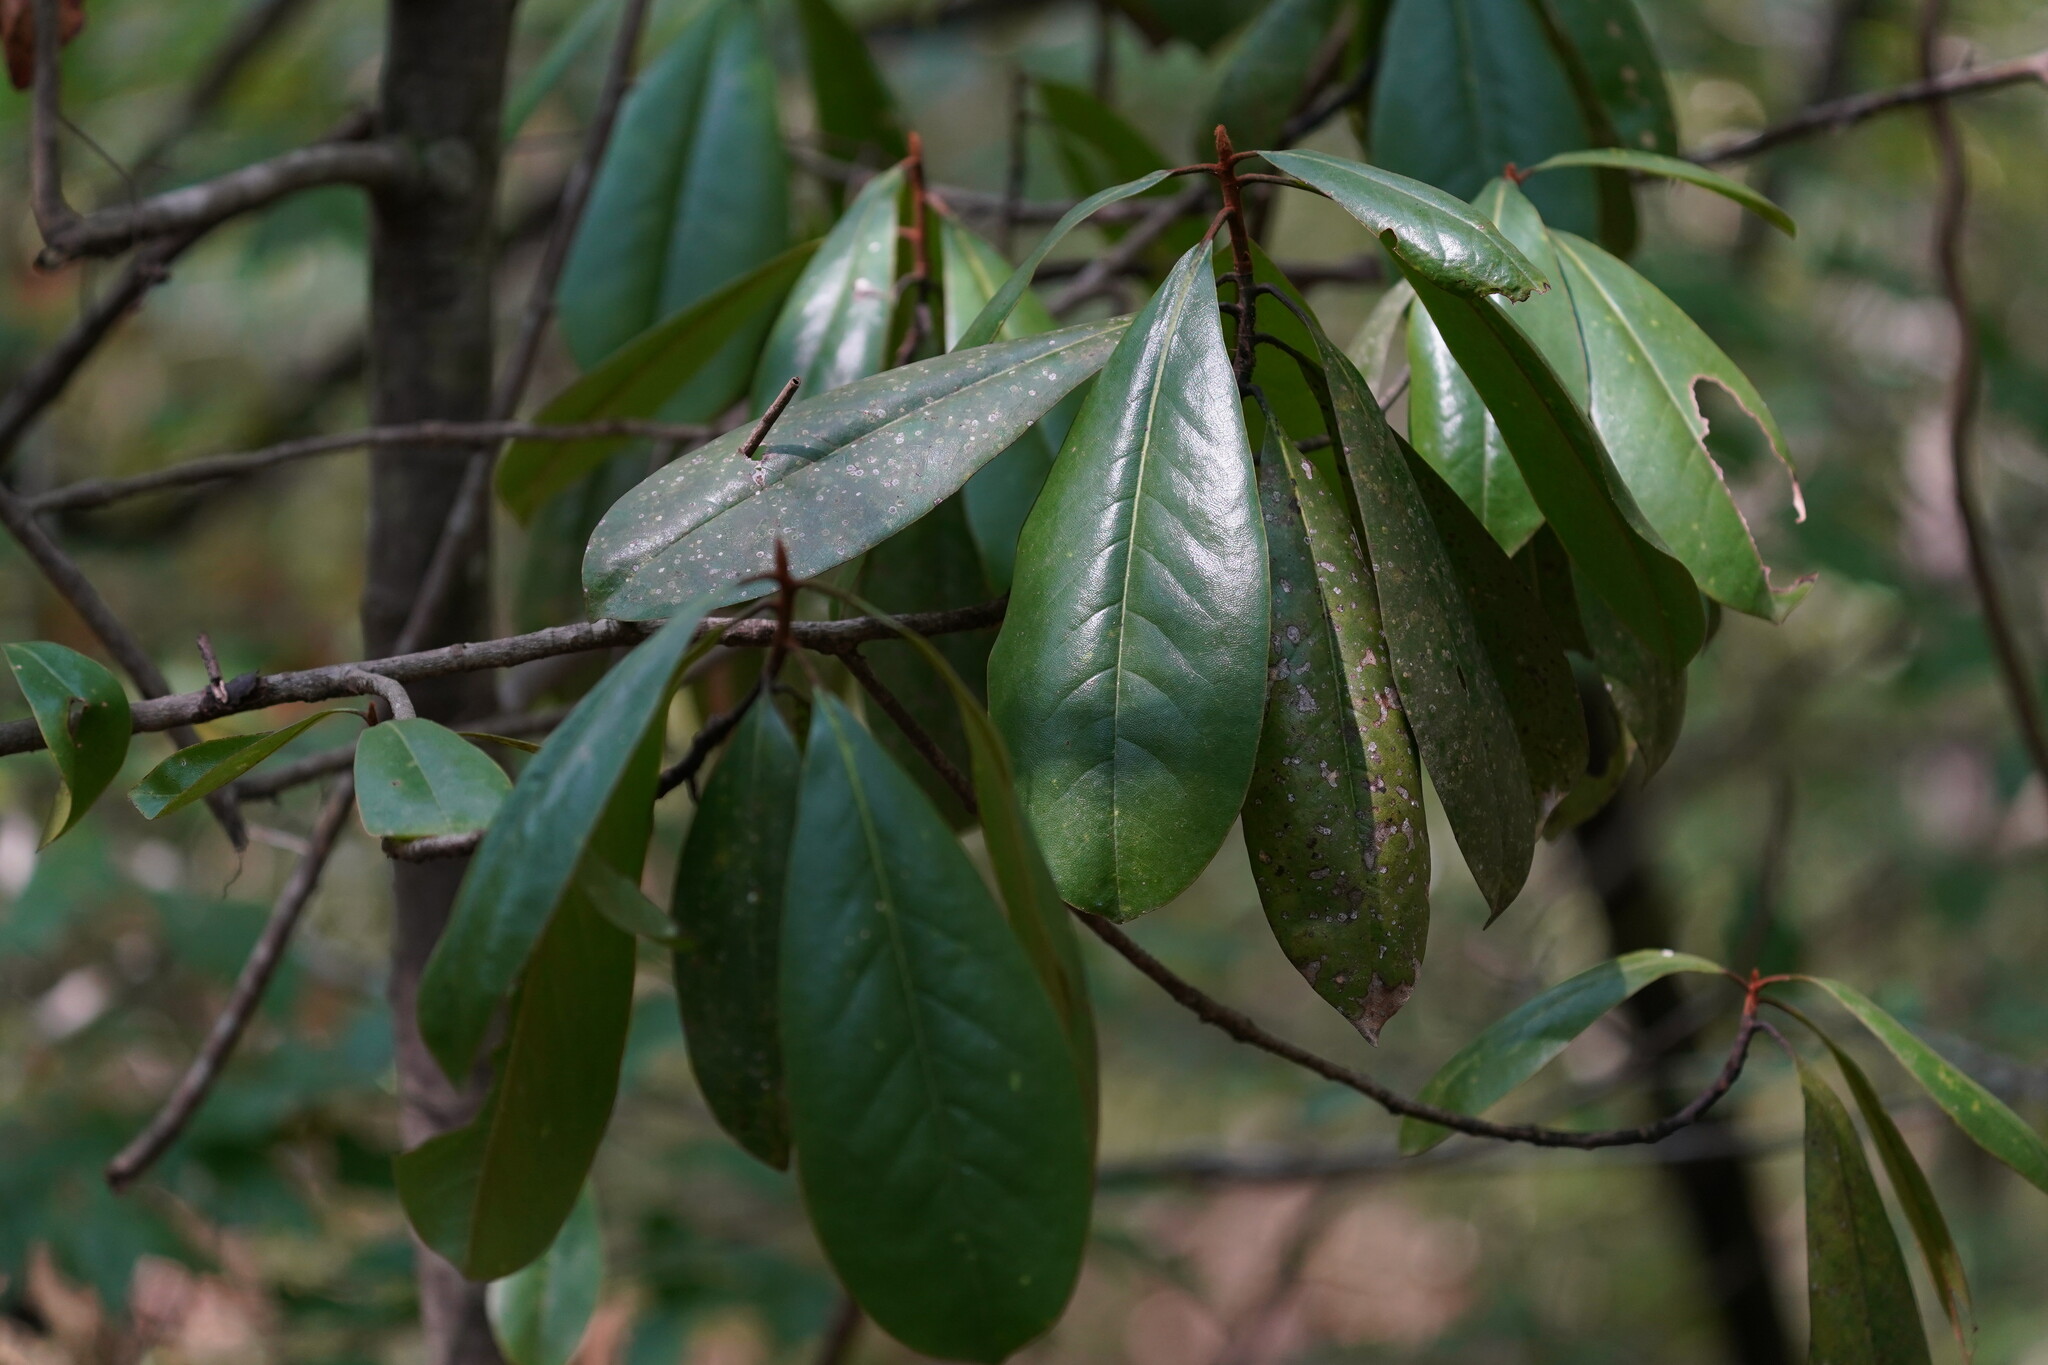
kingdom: Plantae
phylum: Tracheophyta
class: Magnoliopsida
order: Magnoliales
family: Magnoliaceae
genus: Magnolia
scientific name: Magnolia grandiflora
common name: Southern magnolia
